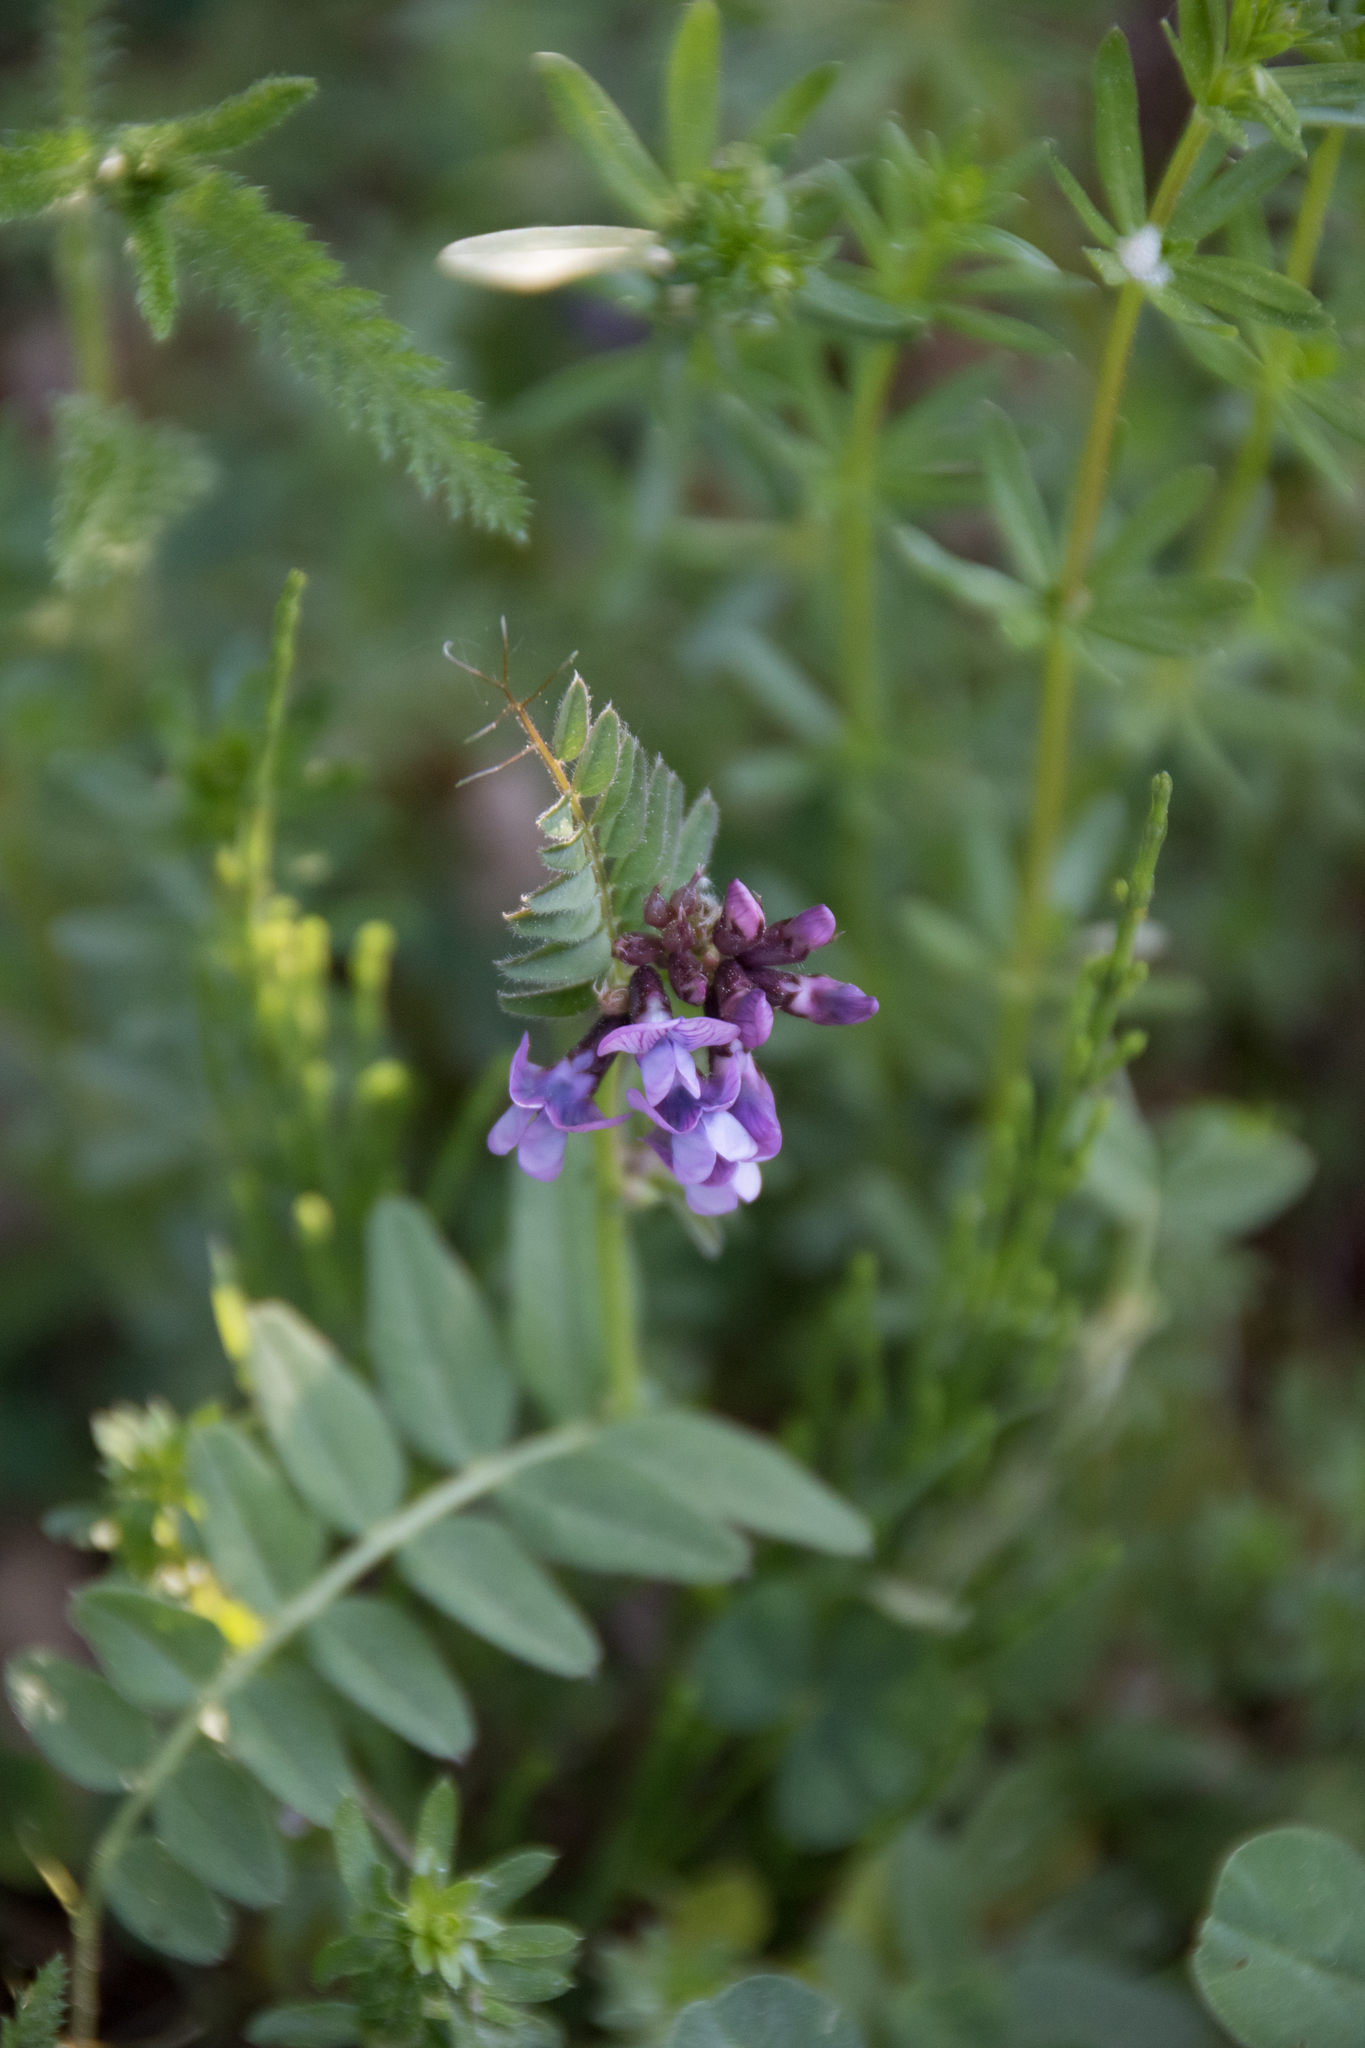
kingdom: Plantae
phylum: Tracheophyta
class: Magnoliopsida
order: Fabales
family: Fabaceae
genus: Vicia
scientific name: Vicia sepium
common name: Bush vetch
